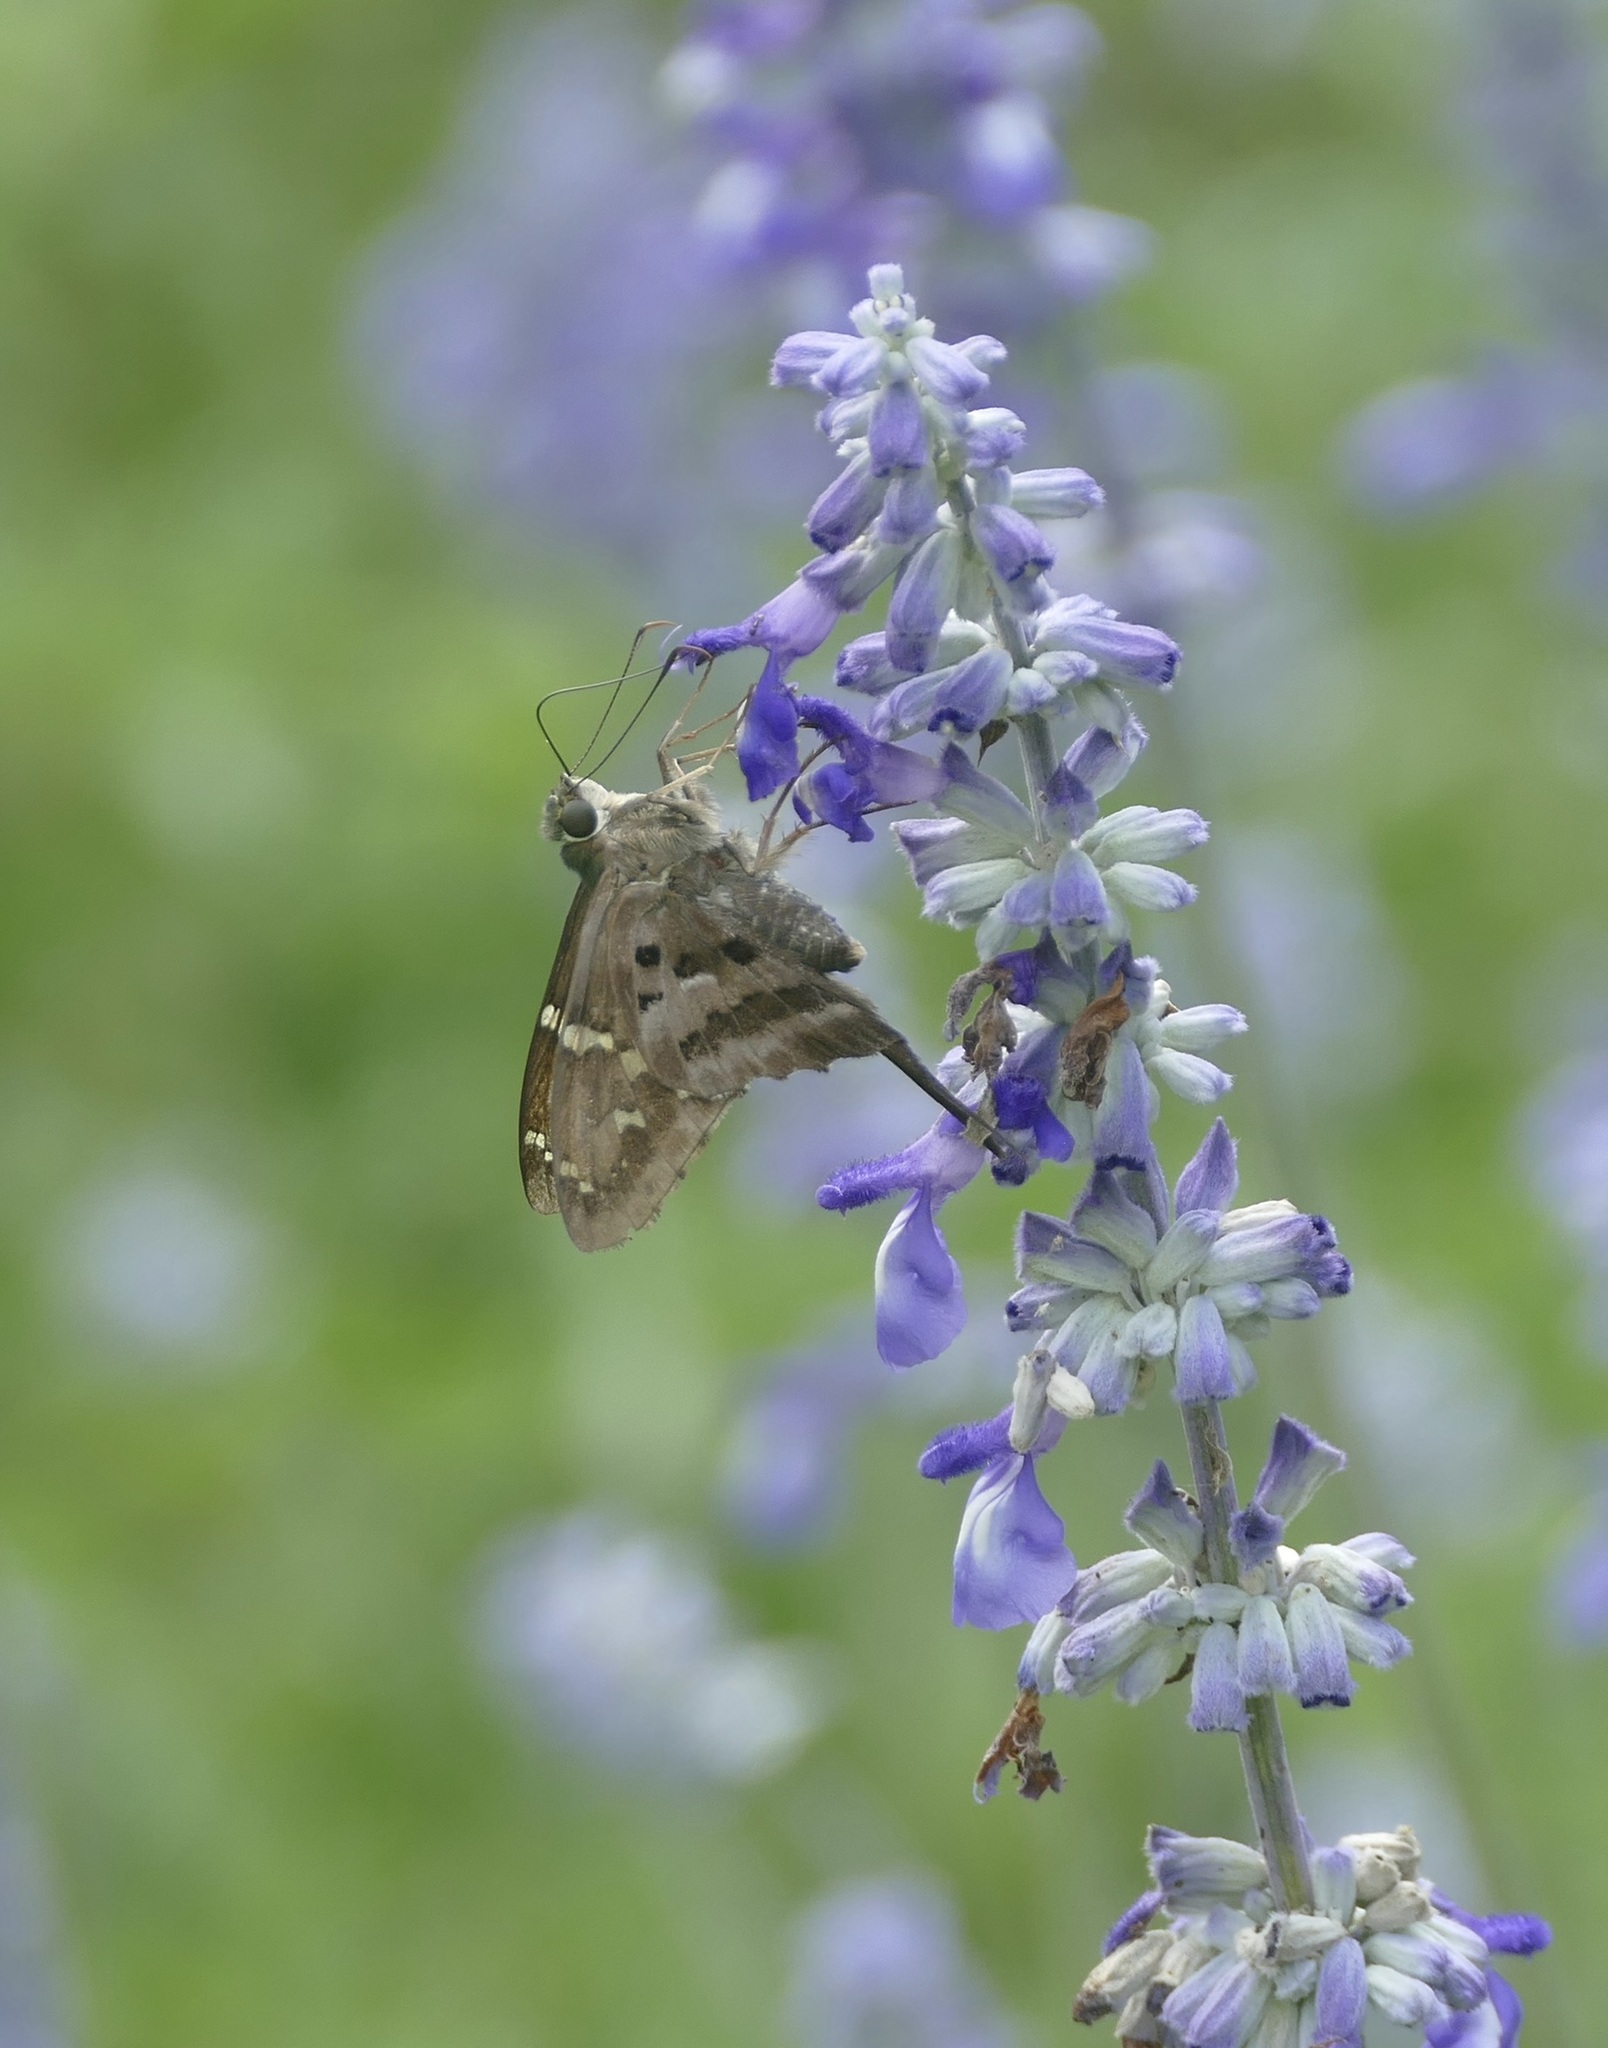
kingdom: Animalia
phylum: Arthropoda
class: Insecta
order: Lepidoptera
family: Hesperiidae
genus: Urbanus
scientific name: Urbanus proteus
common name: Long-tailed skipper
